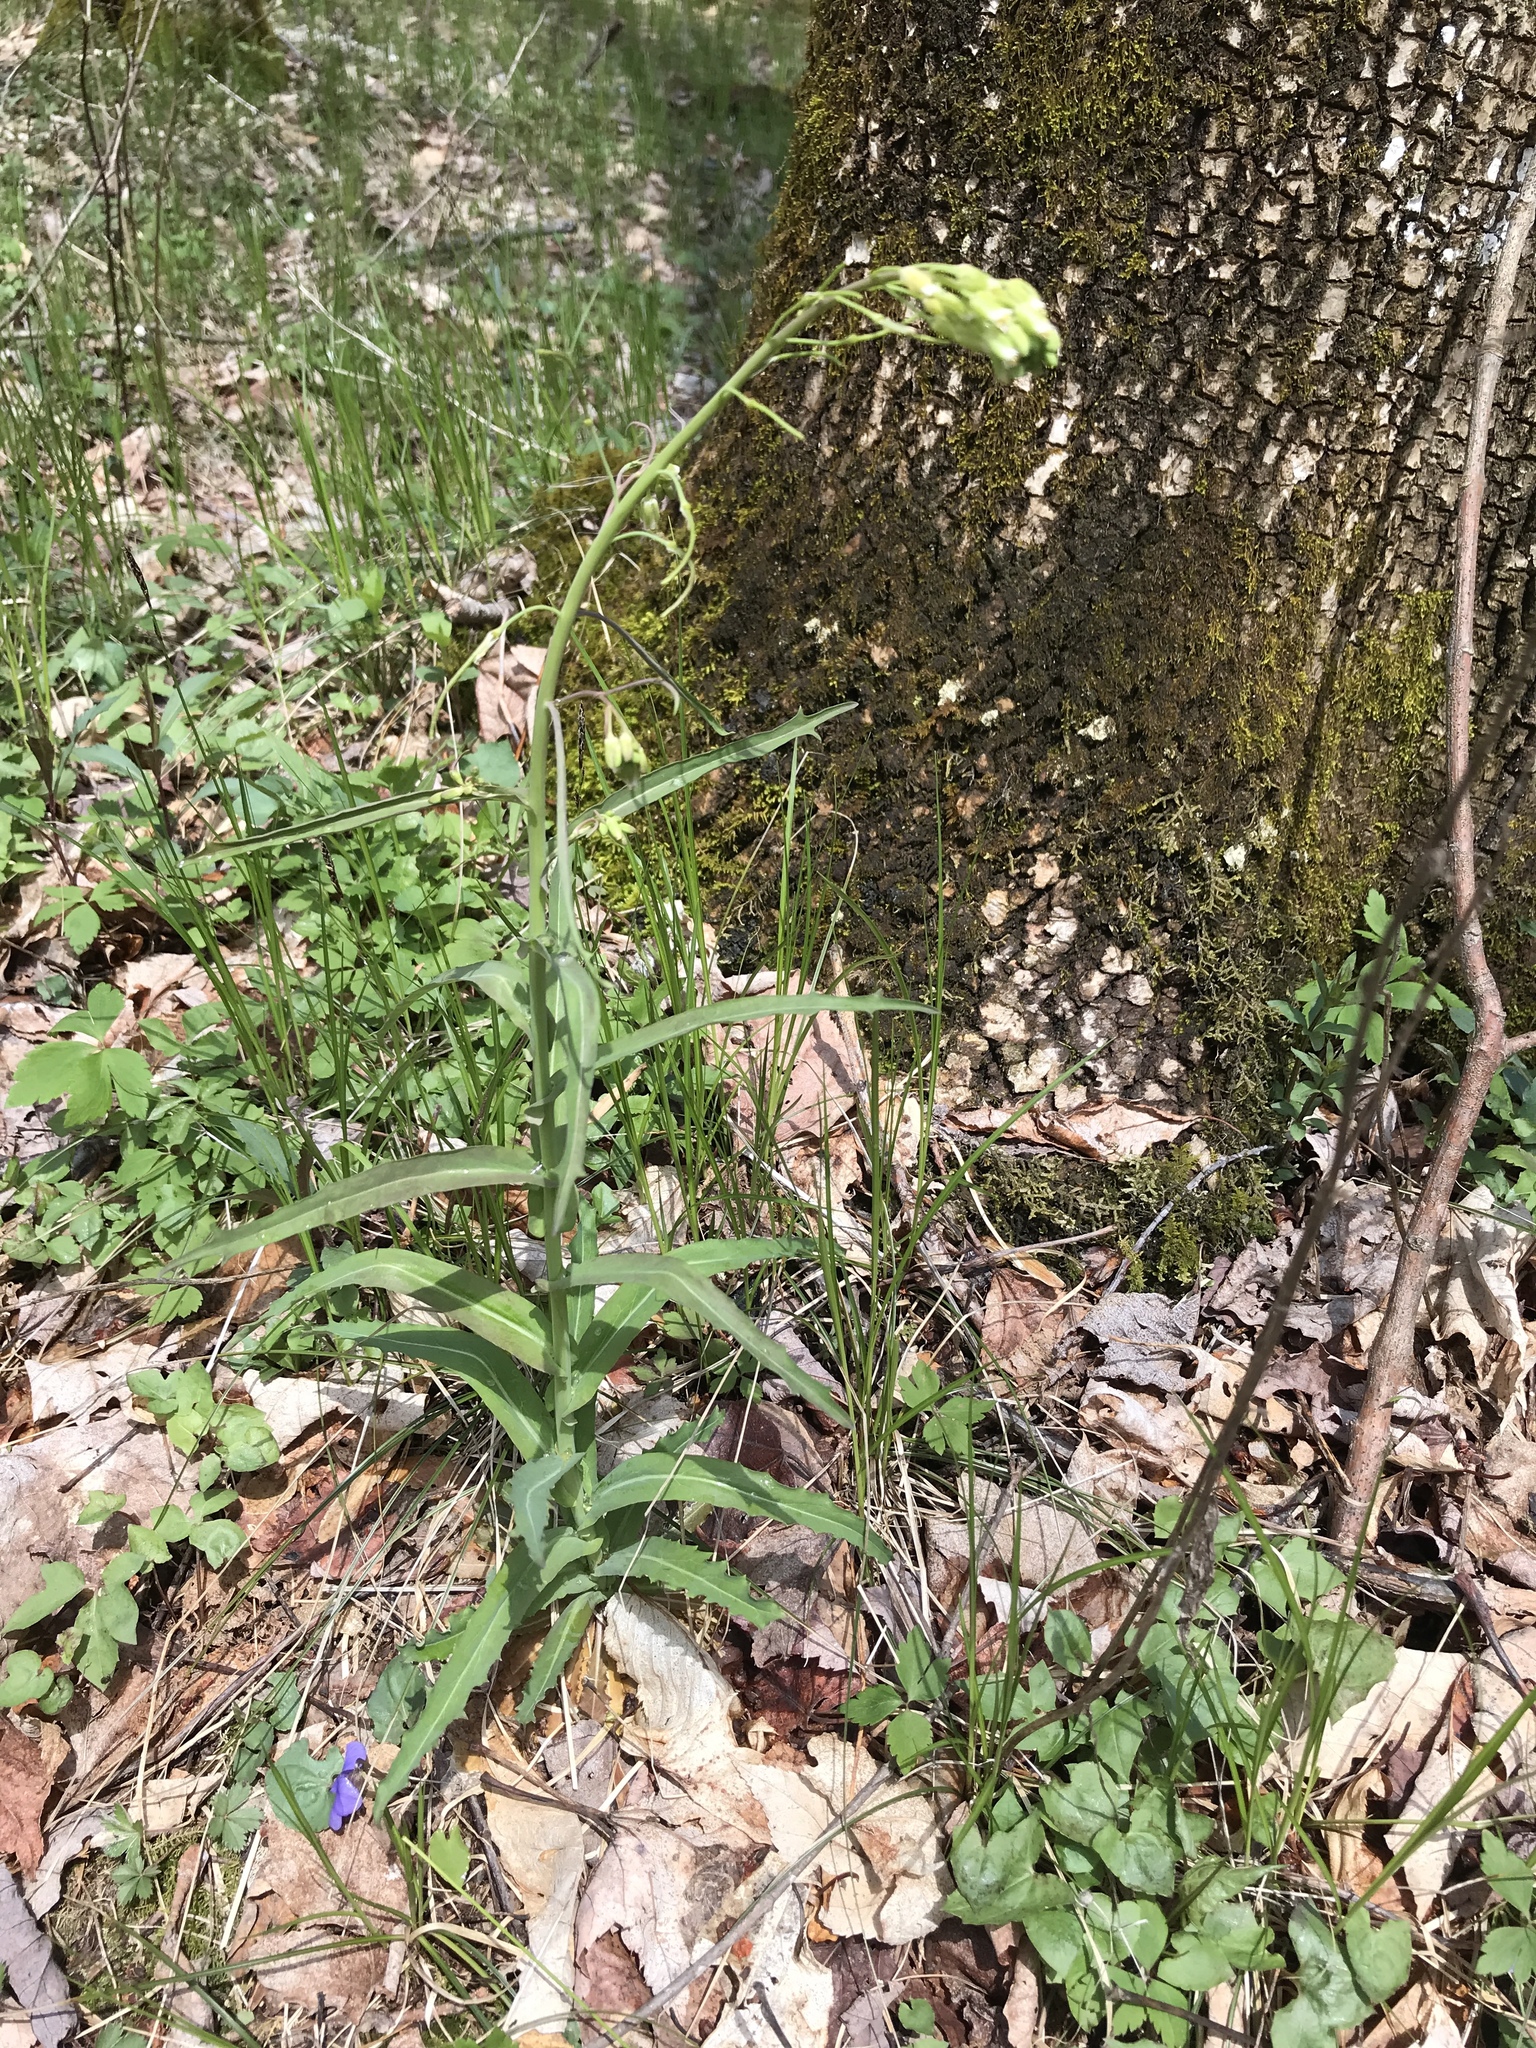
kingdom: Plantae
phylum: Tracheophyta
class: Magnoliopsida
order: Brassicales
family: Brassicaceae
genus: Borodinia
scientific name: Borodinia laevigata
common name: Smooth rockcress
